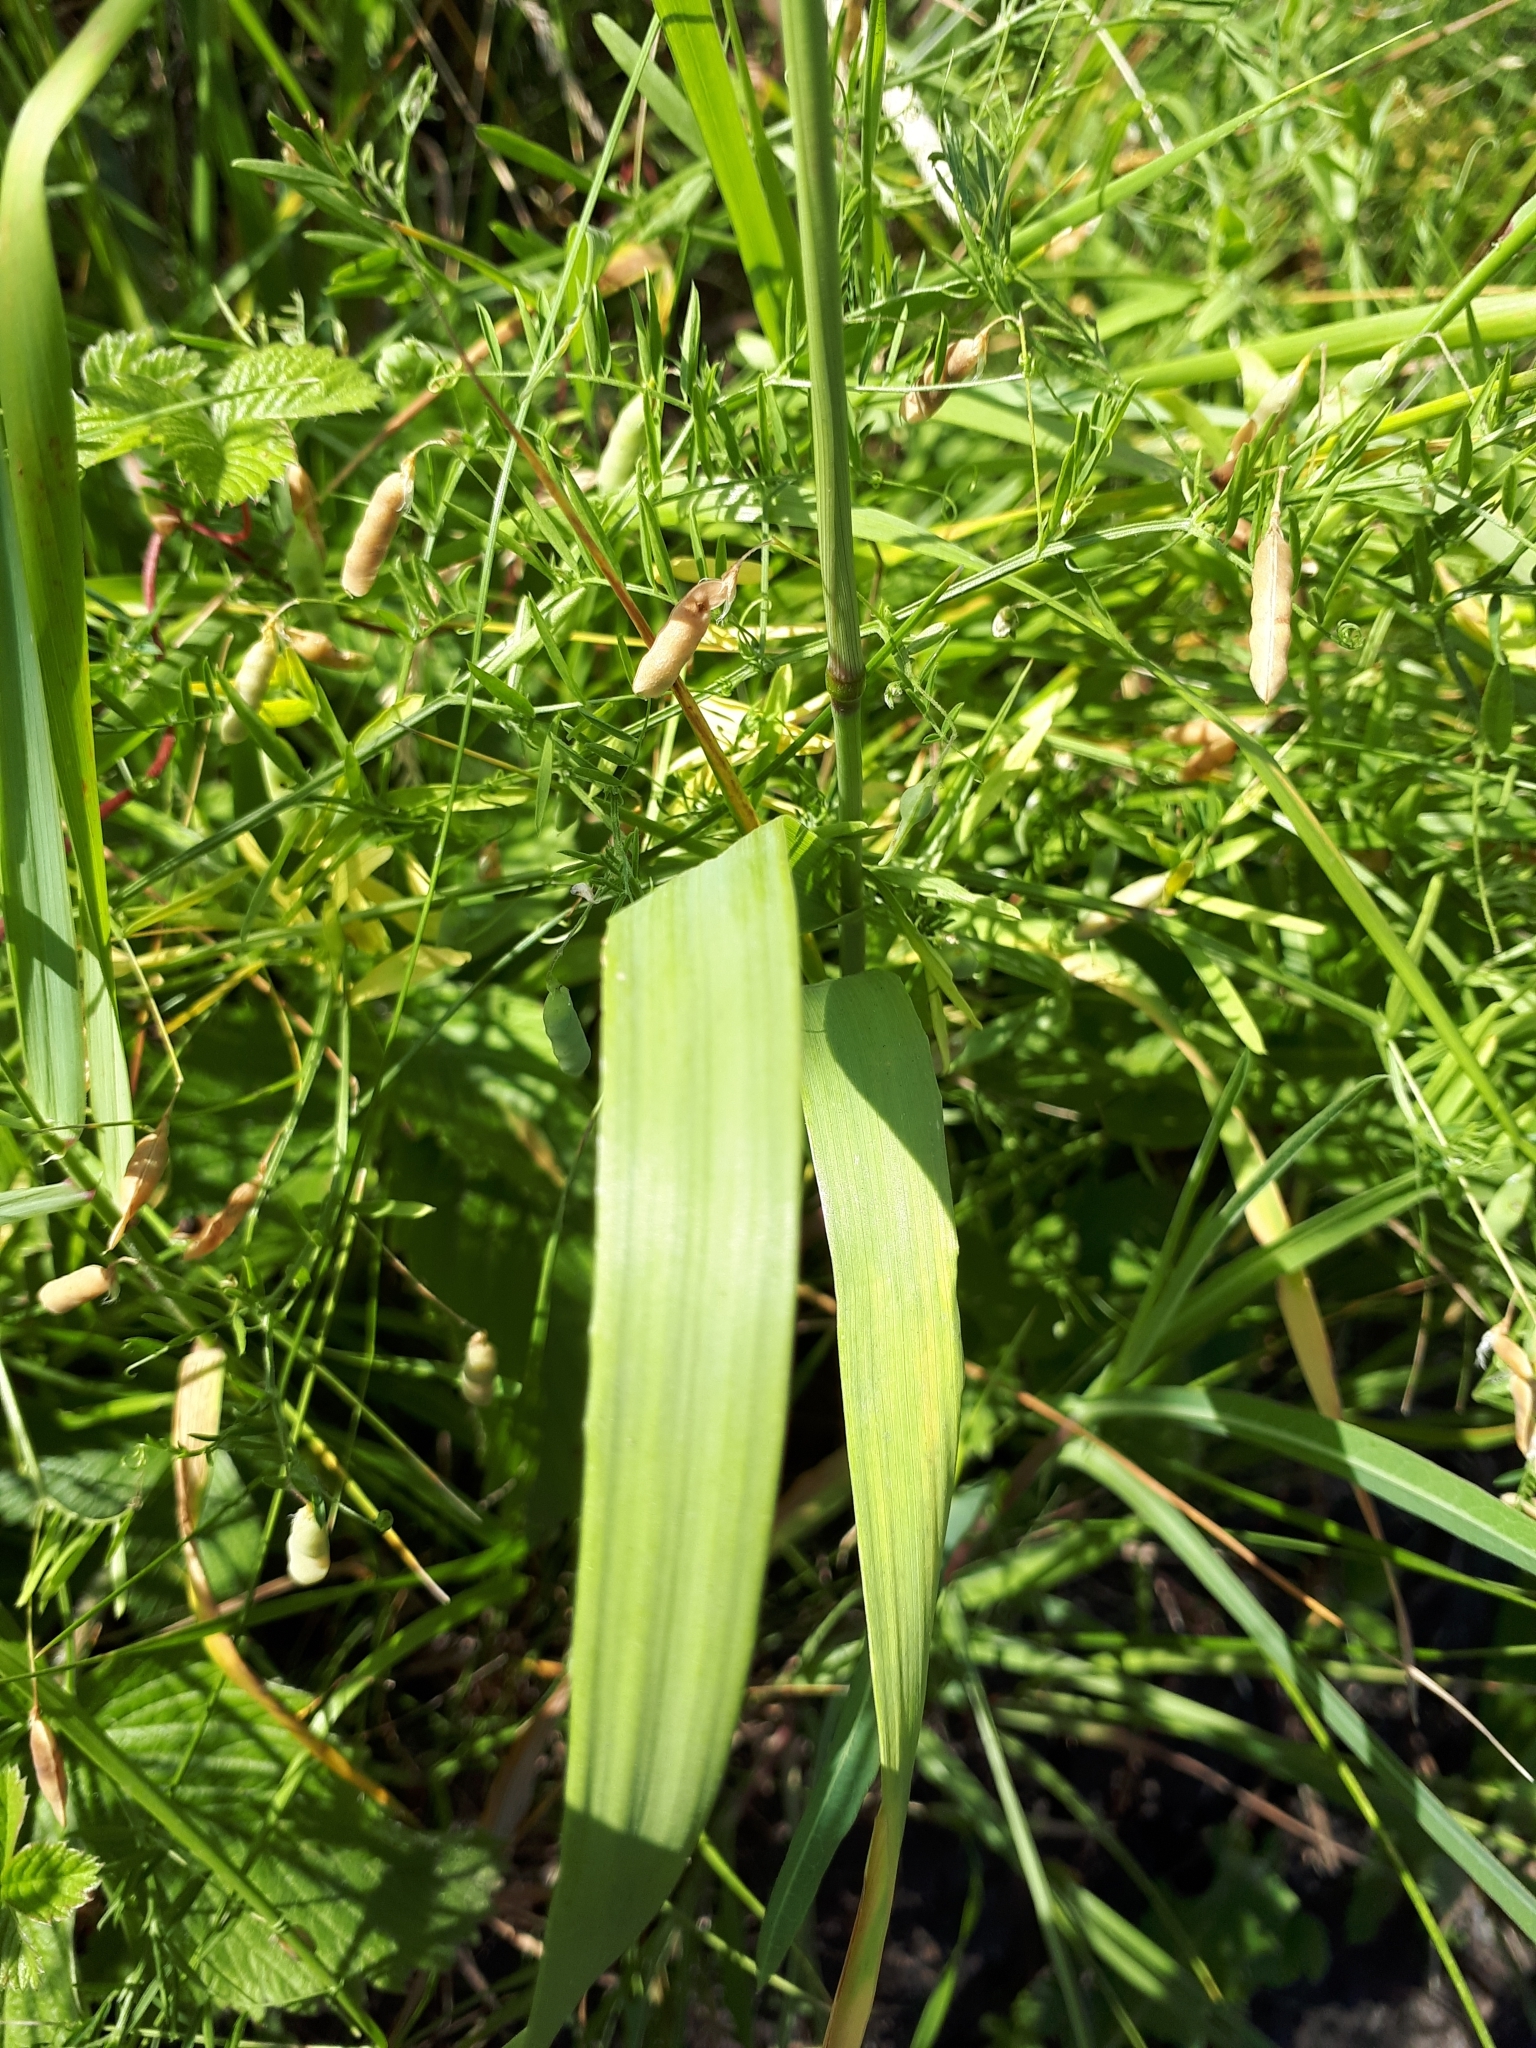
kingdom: Plantae
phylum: Tracheophyta
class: Liliopsida
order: Poales
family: Poaceae
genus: Phleum
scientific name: Phleum pratense
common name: Timothy grass
